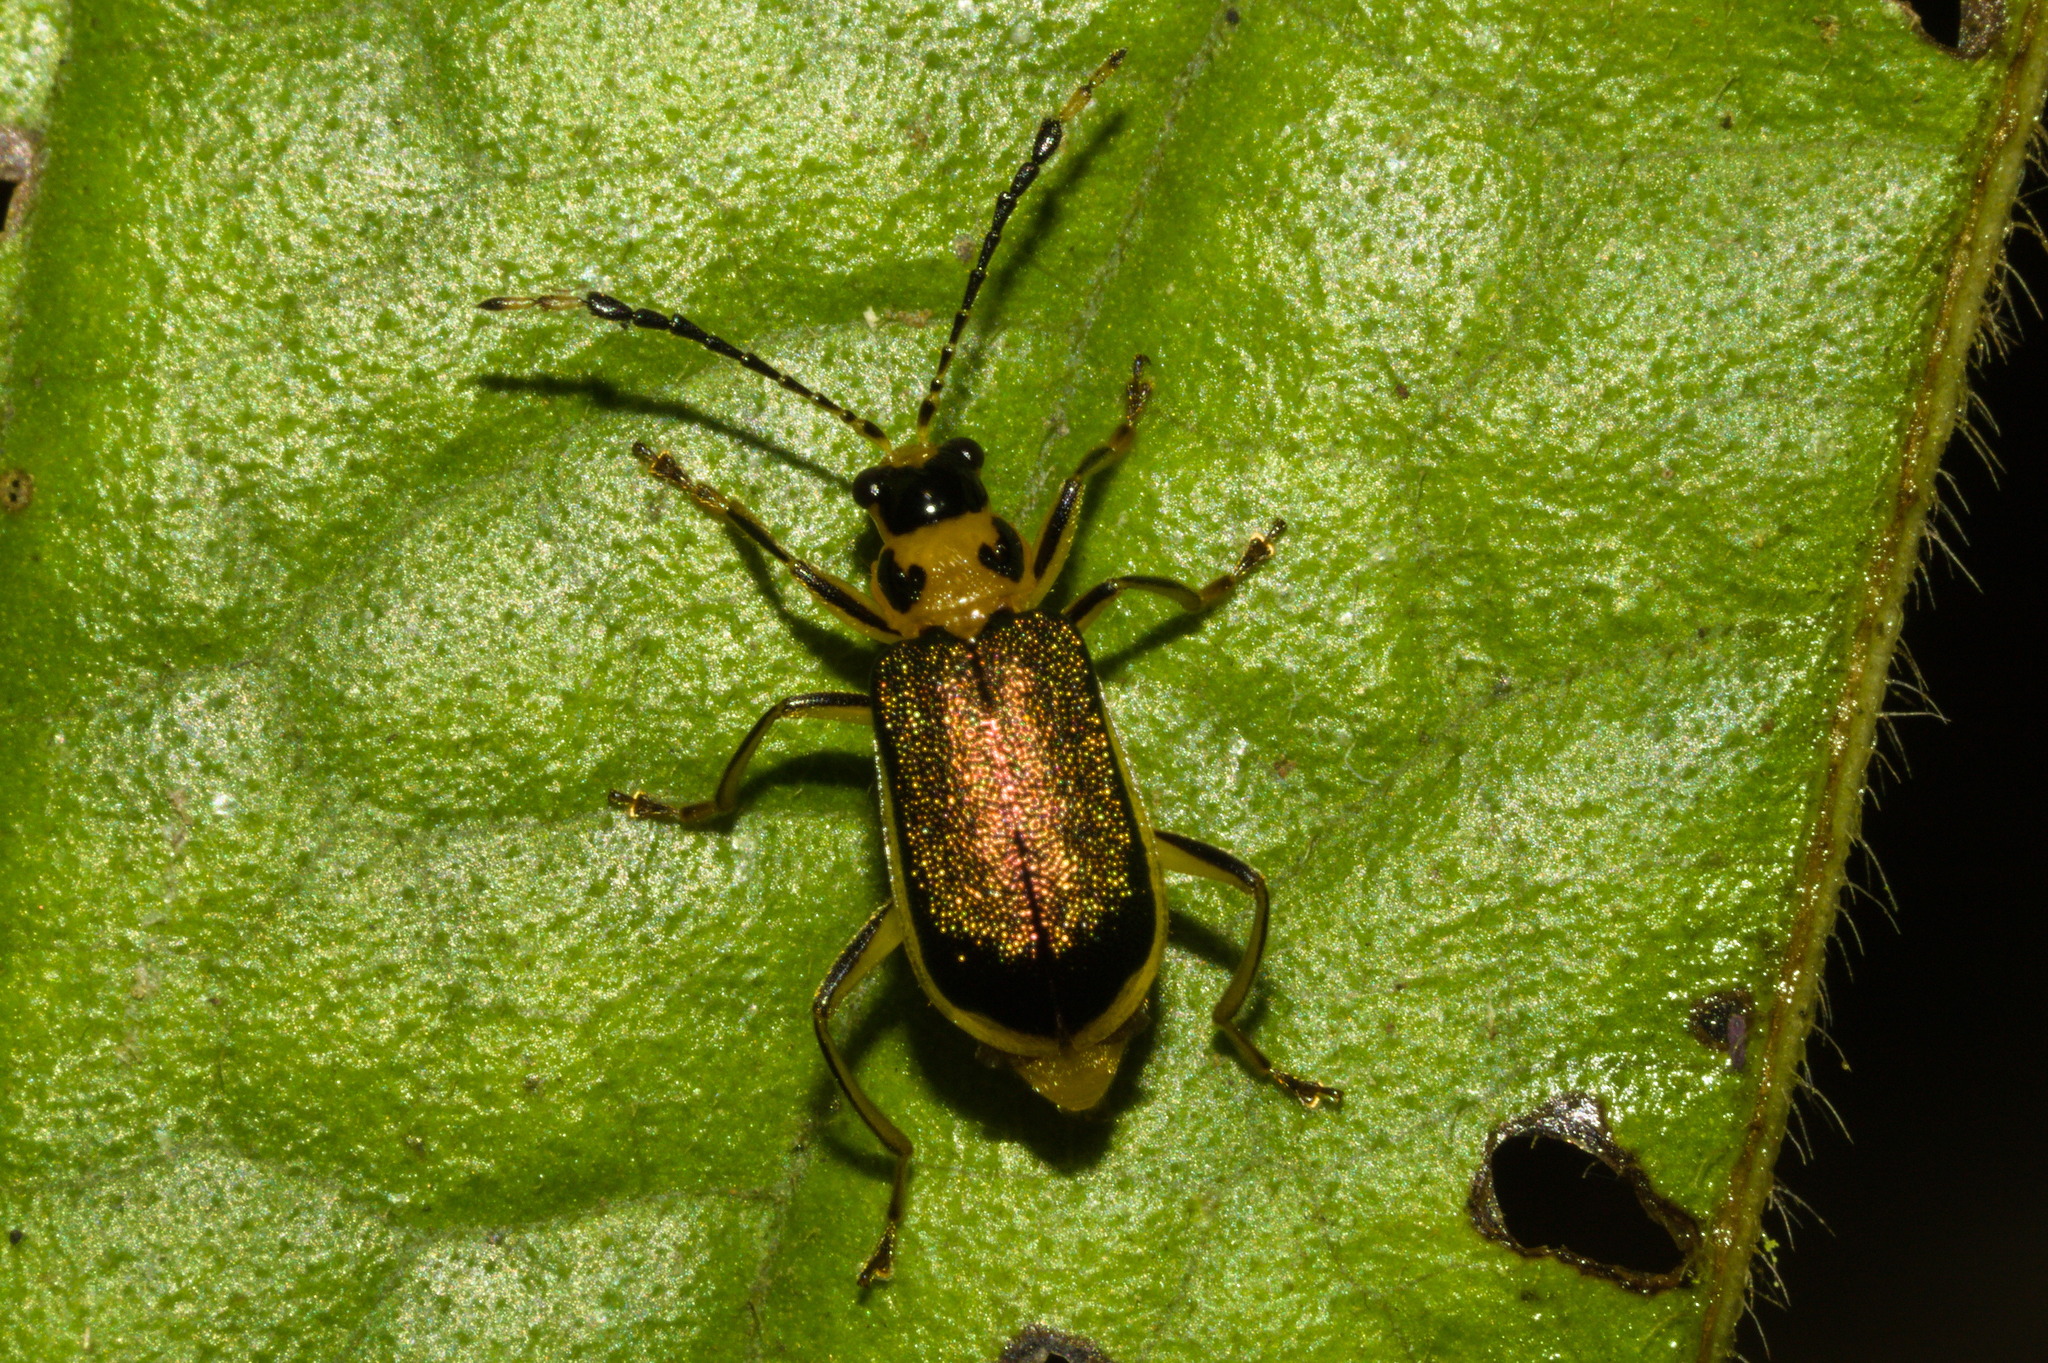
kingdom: Animalia
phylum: Arthropoda
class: Insecta
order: Coleoptera
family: Chrysomelidae
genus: Buckibrotica
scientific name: Buckibrotica
